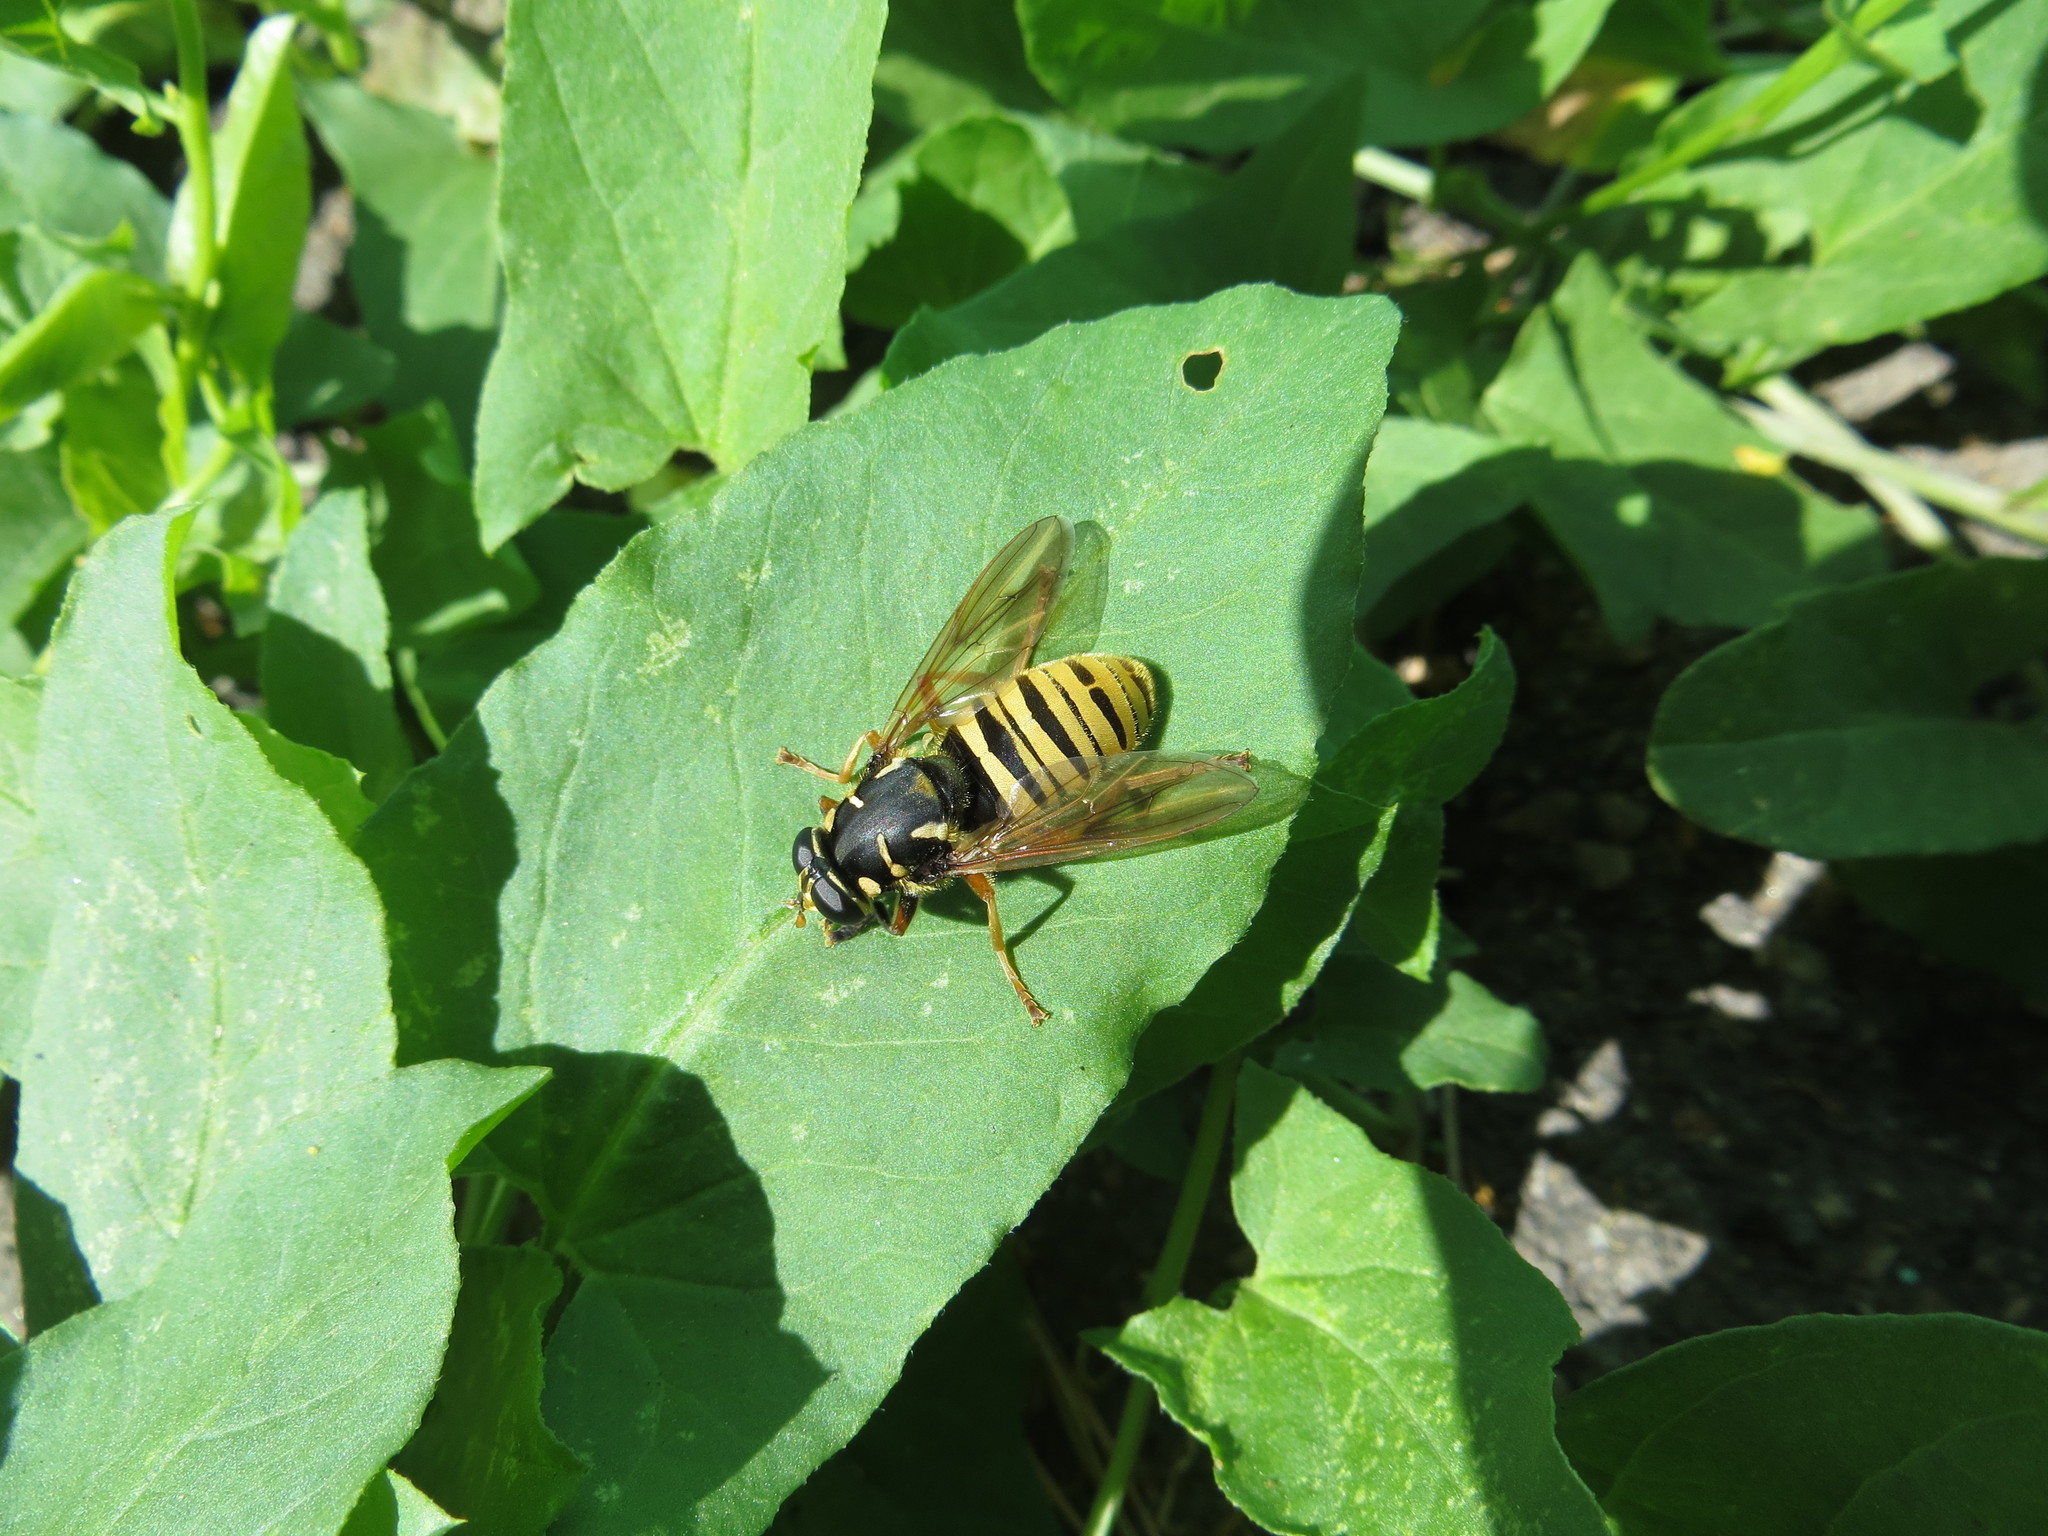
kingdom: Animalia
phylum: Arthropoda
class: Insecta
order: Diptera
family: Syrphidae
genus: Temnostoma
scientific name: Temnostoma vespiforme
